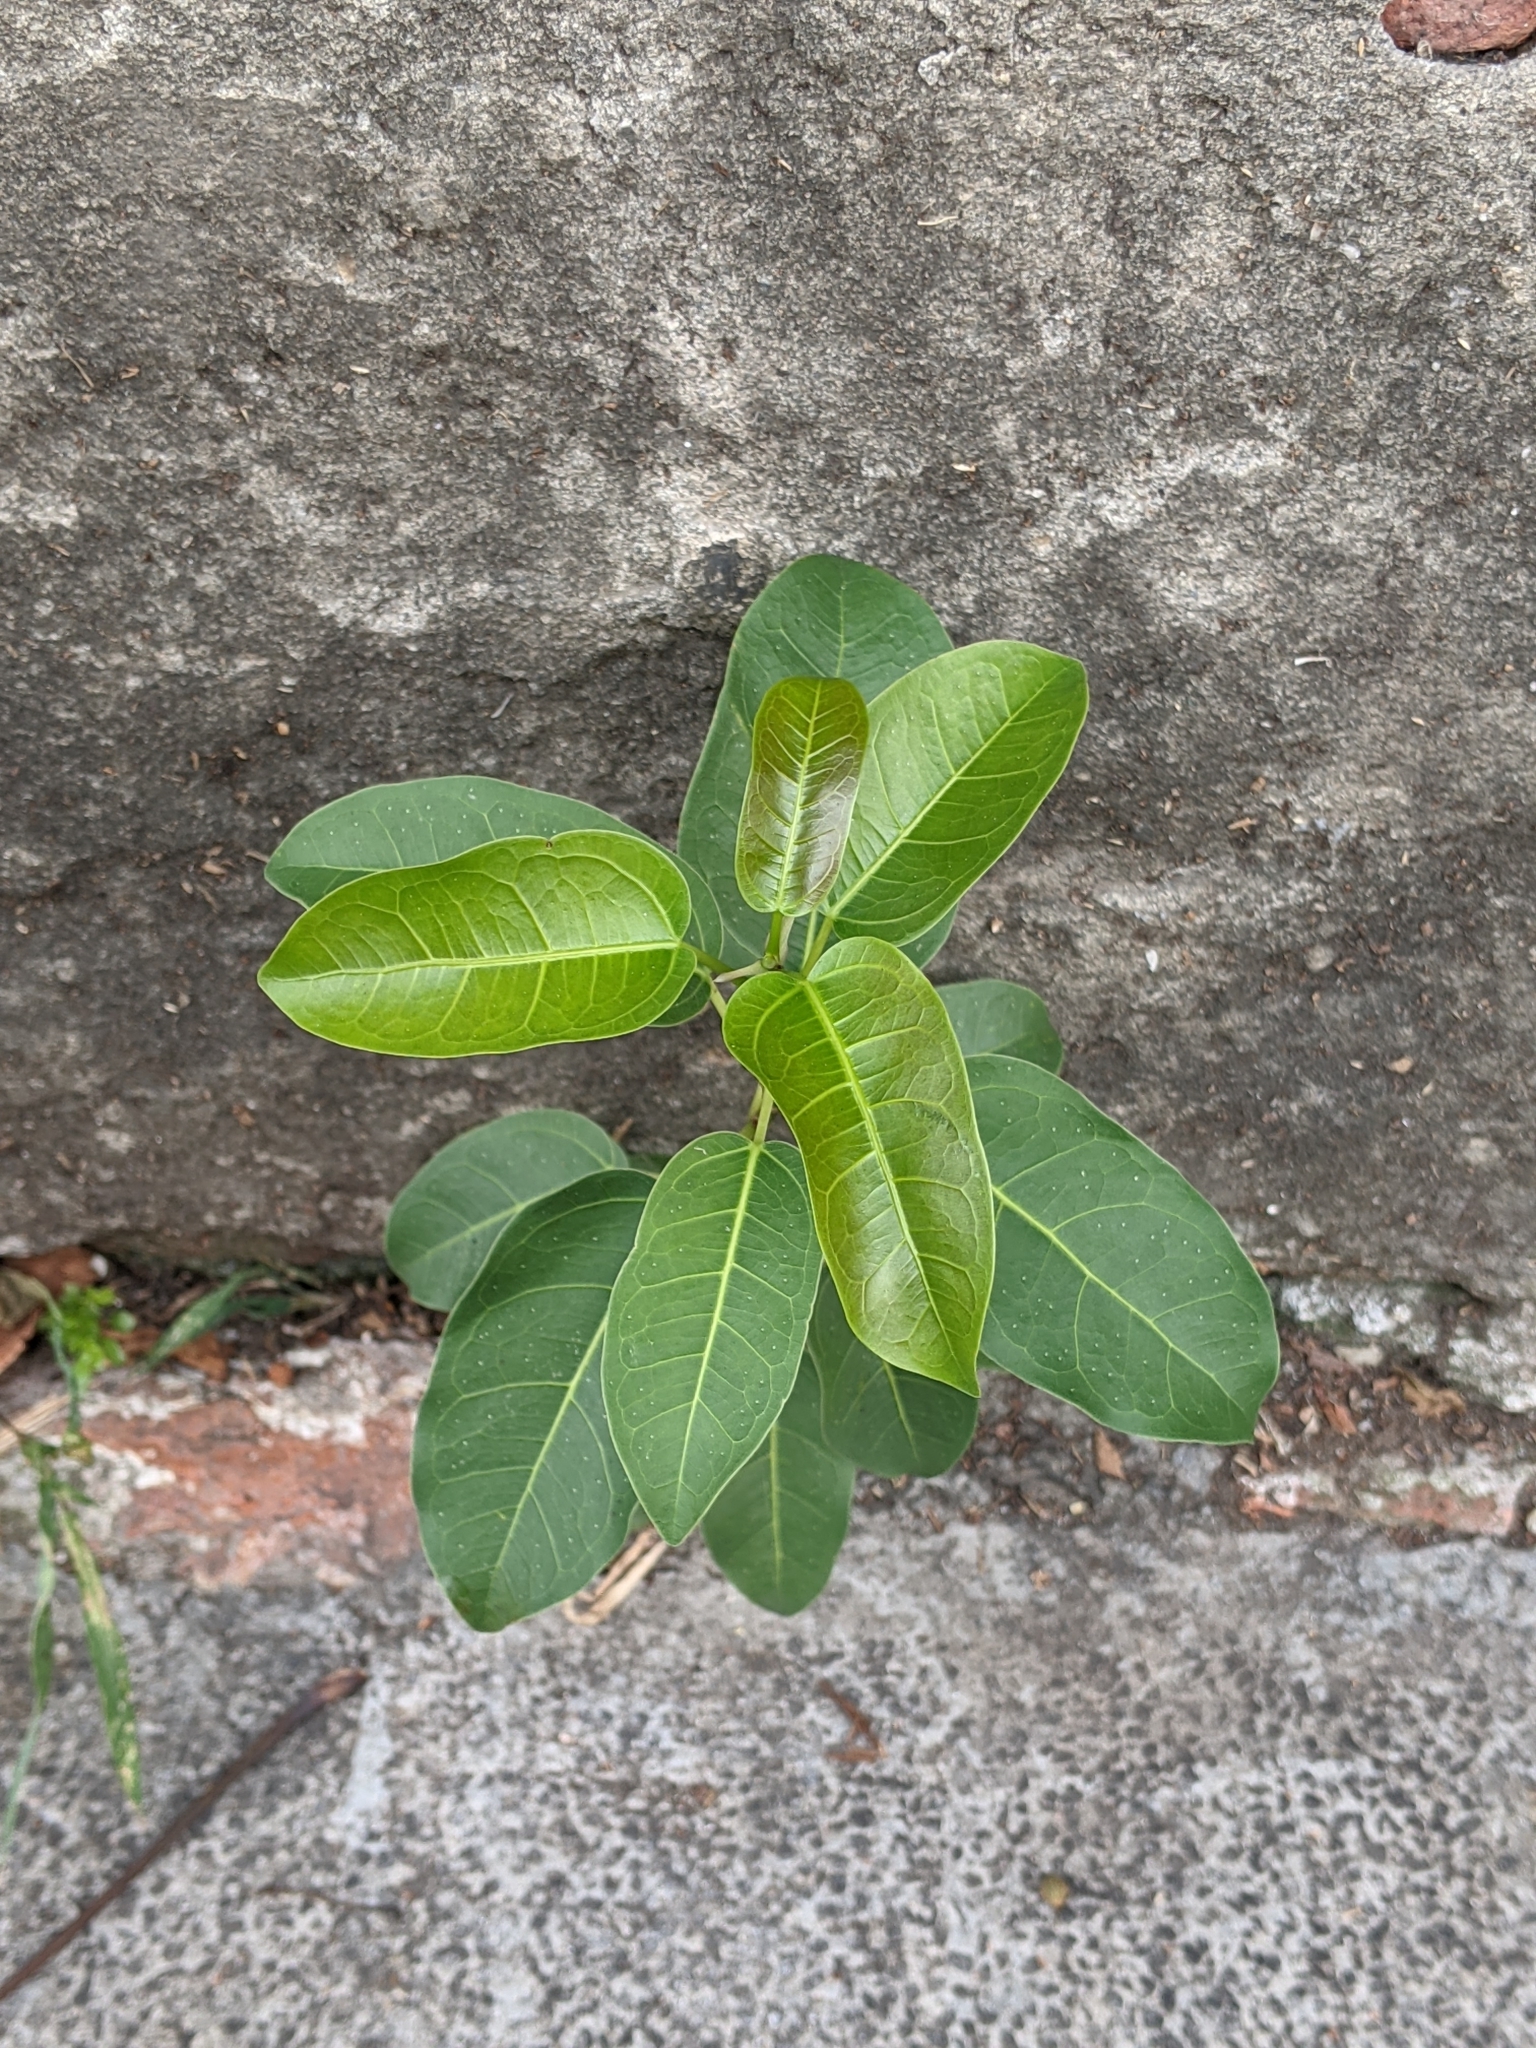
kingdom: Plantae
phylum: Tracheophyta
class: Magnoliopsida
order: Rosales
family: Moraceae
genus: Ficus
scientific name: Ficus subpisocarpa
